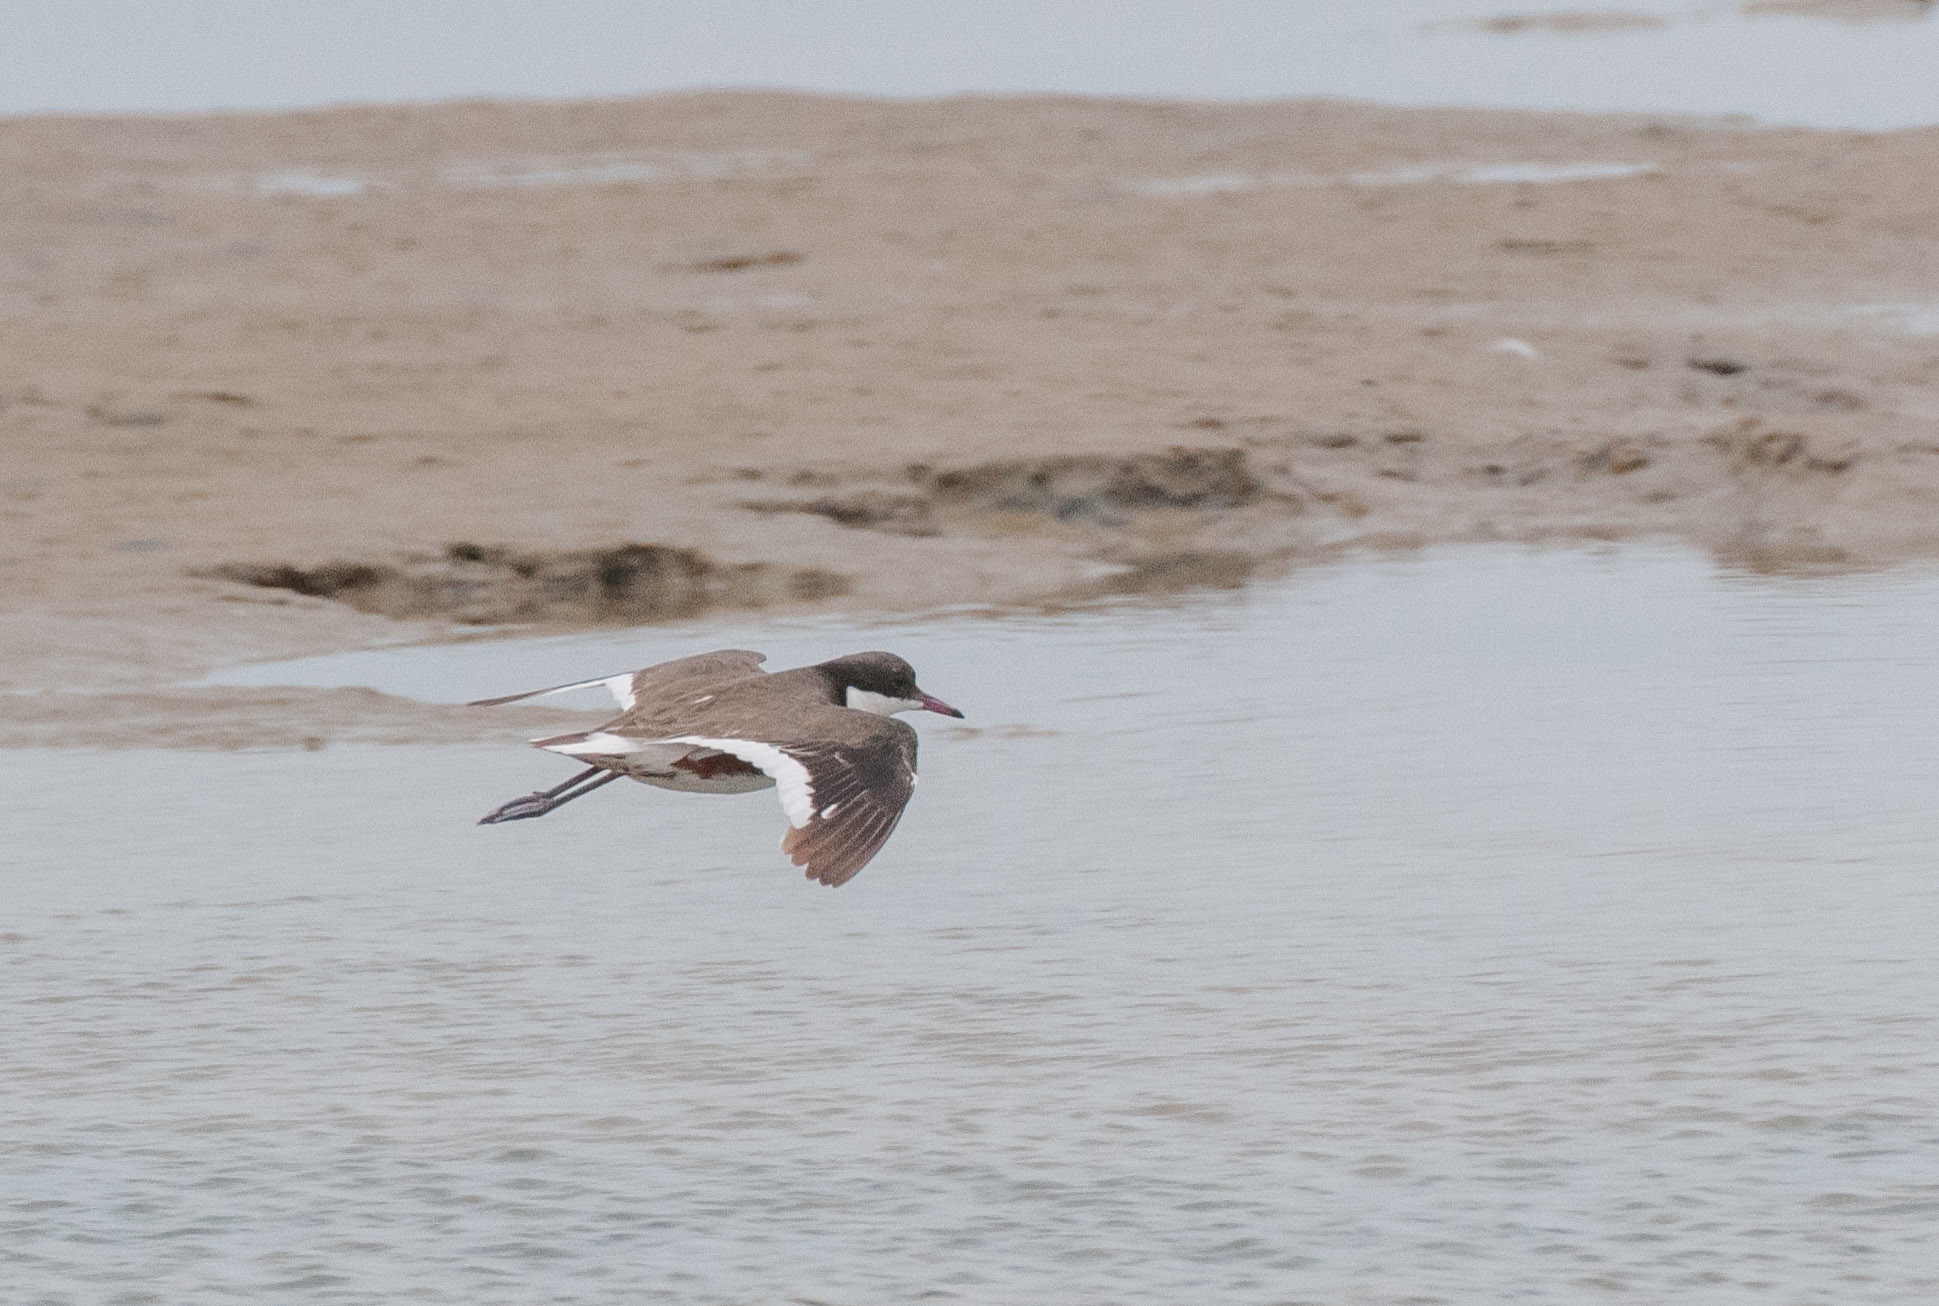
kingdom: Animalia
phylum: Chordata
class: Aves
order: Charadriiformes
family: Charadriidae
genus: Erythrogonys
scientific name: Erythrogonys cinctus
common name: Red-kneed dotterel
